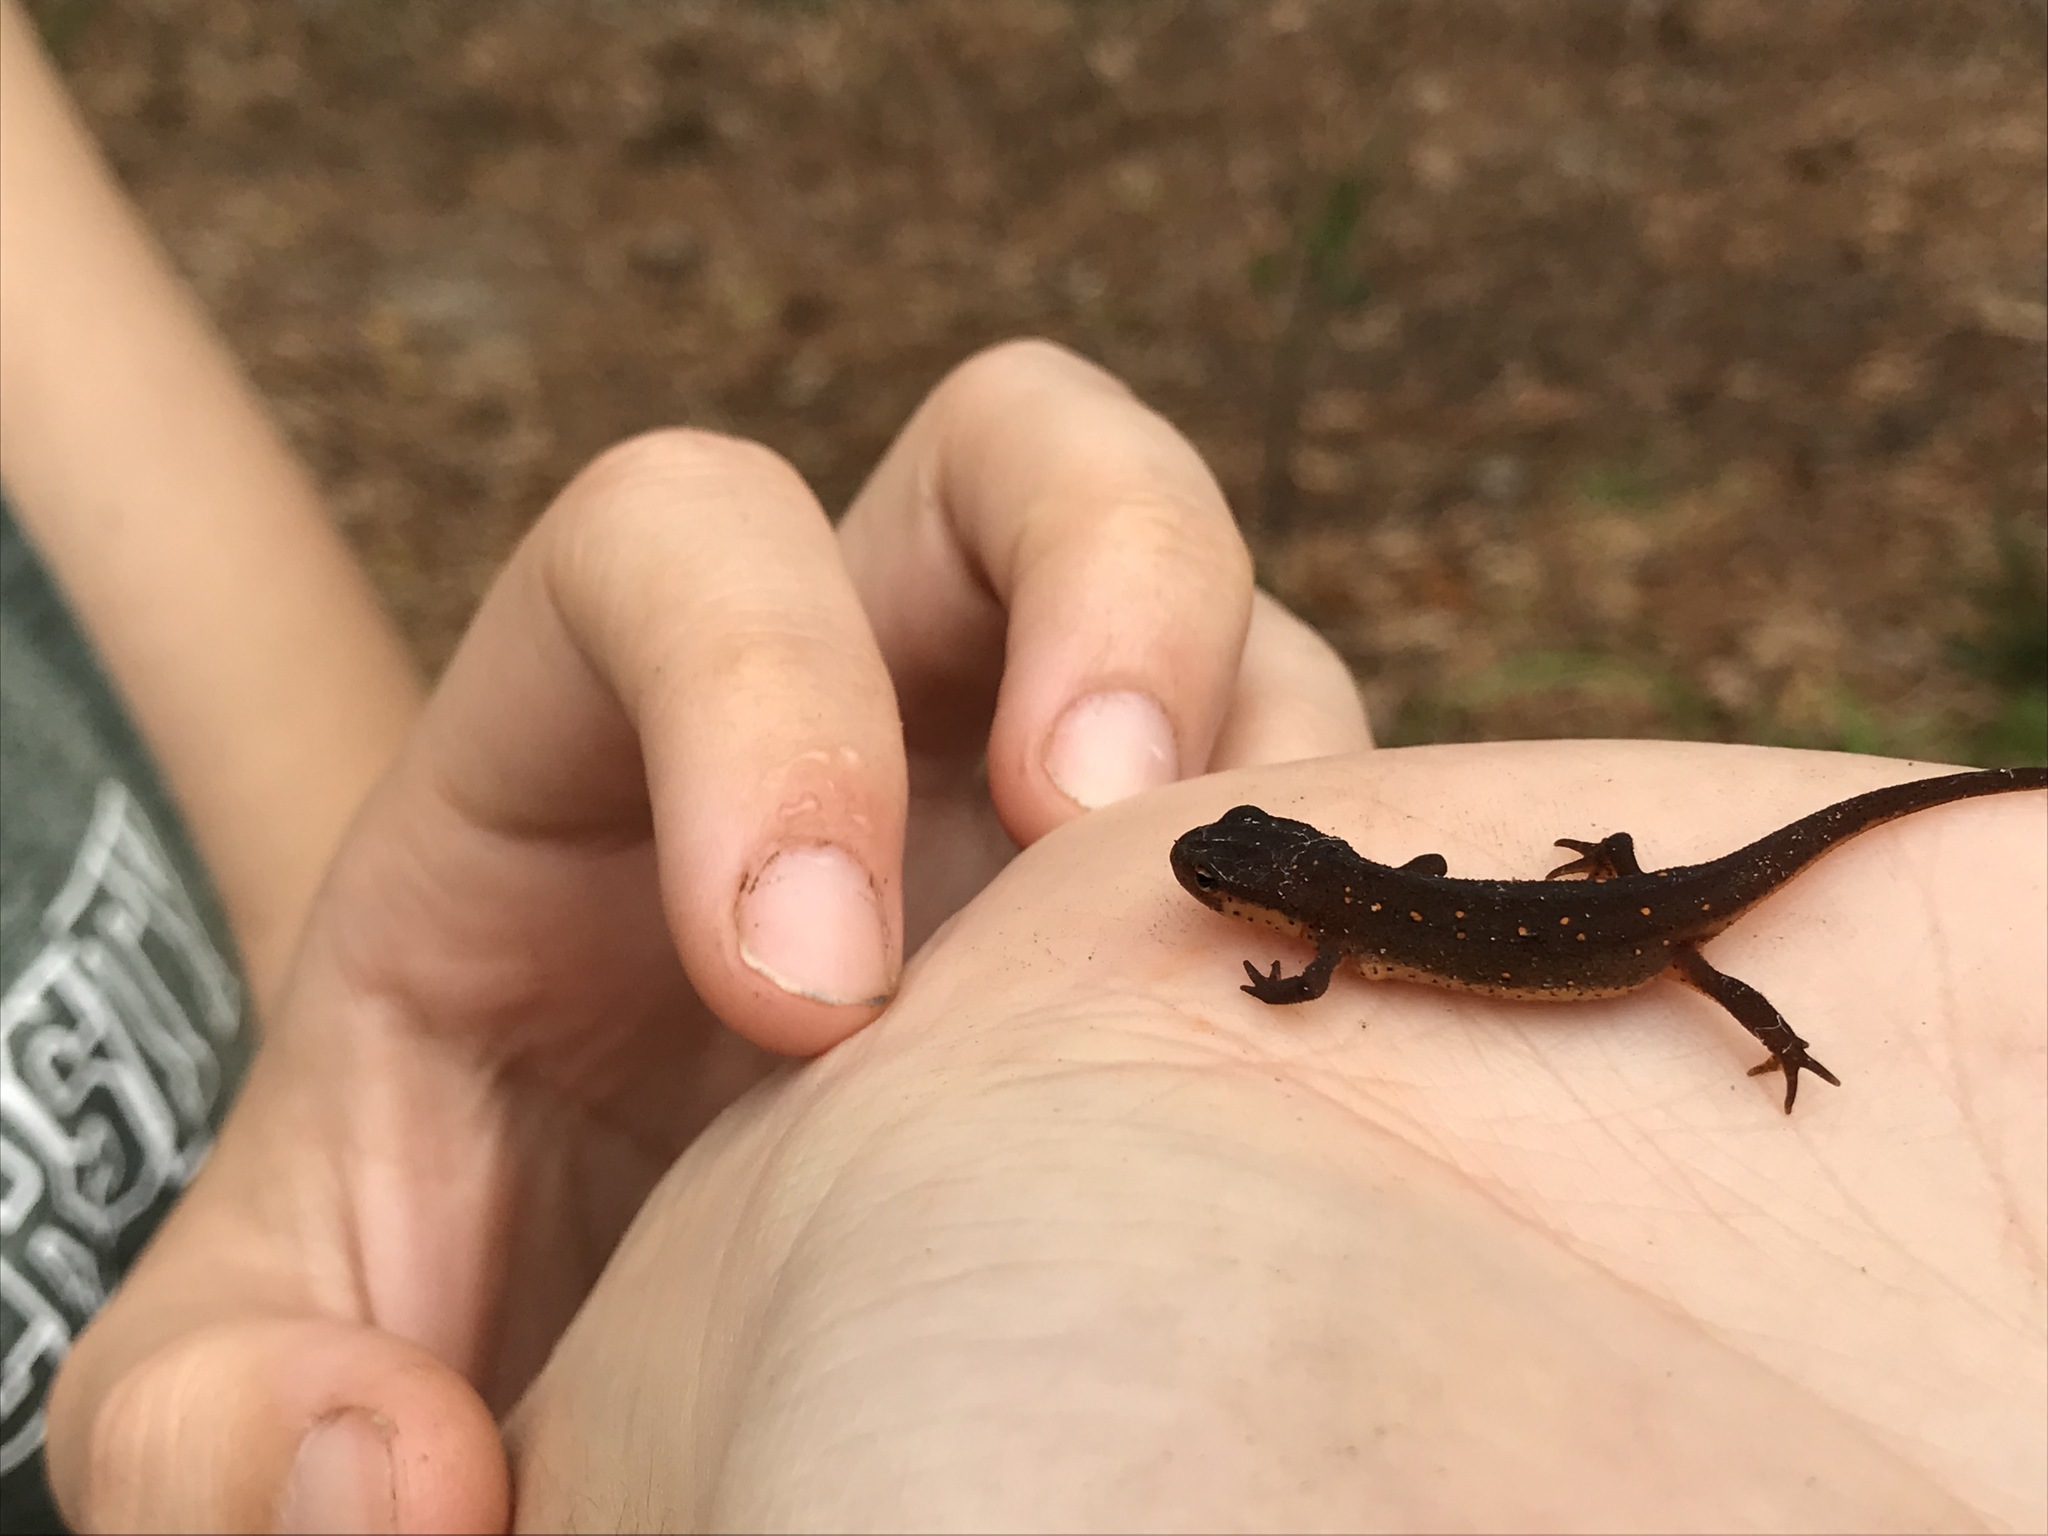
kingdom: Animalia
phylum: Chordata
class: Amphibia
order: Caudata
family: Salamandridae
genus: Notophthalmus
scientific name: Notophthalmus viridescens
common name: Eastern newt
